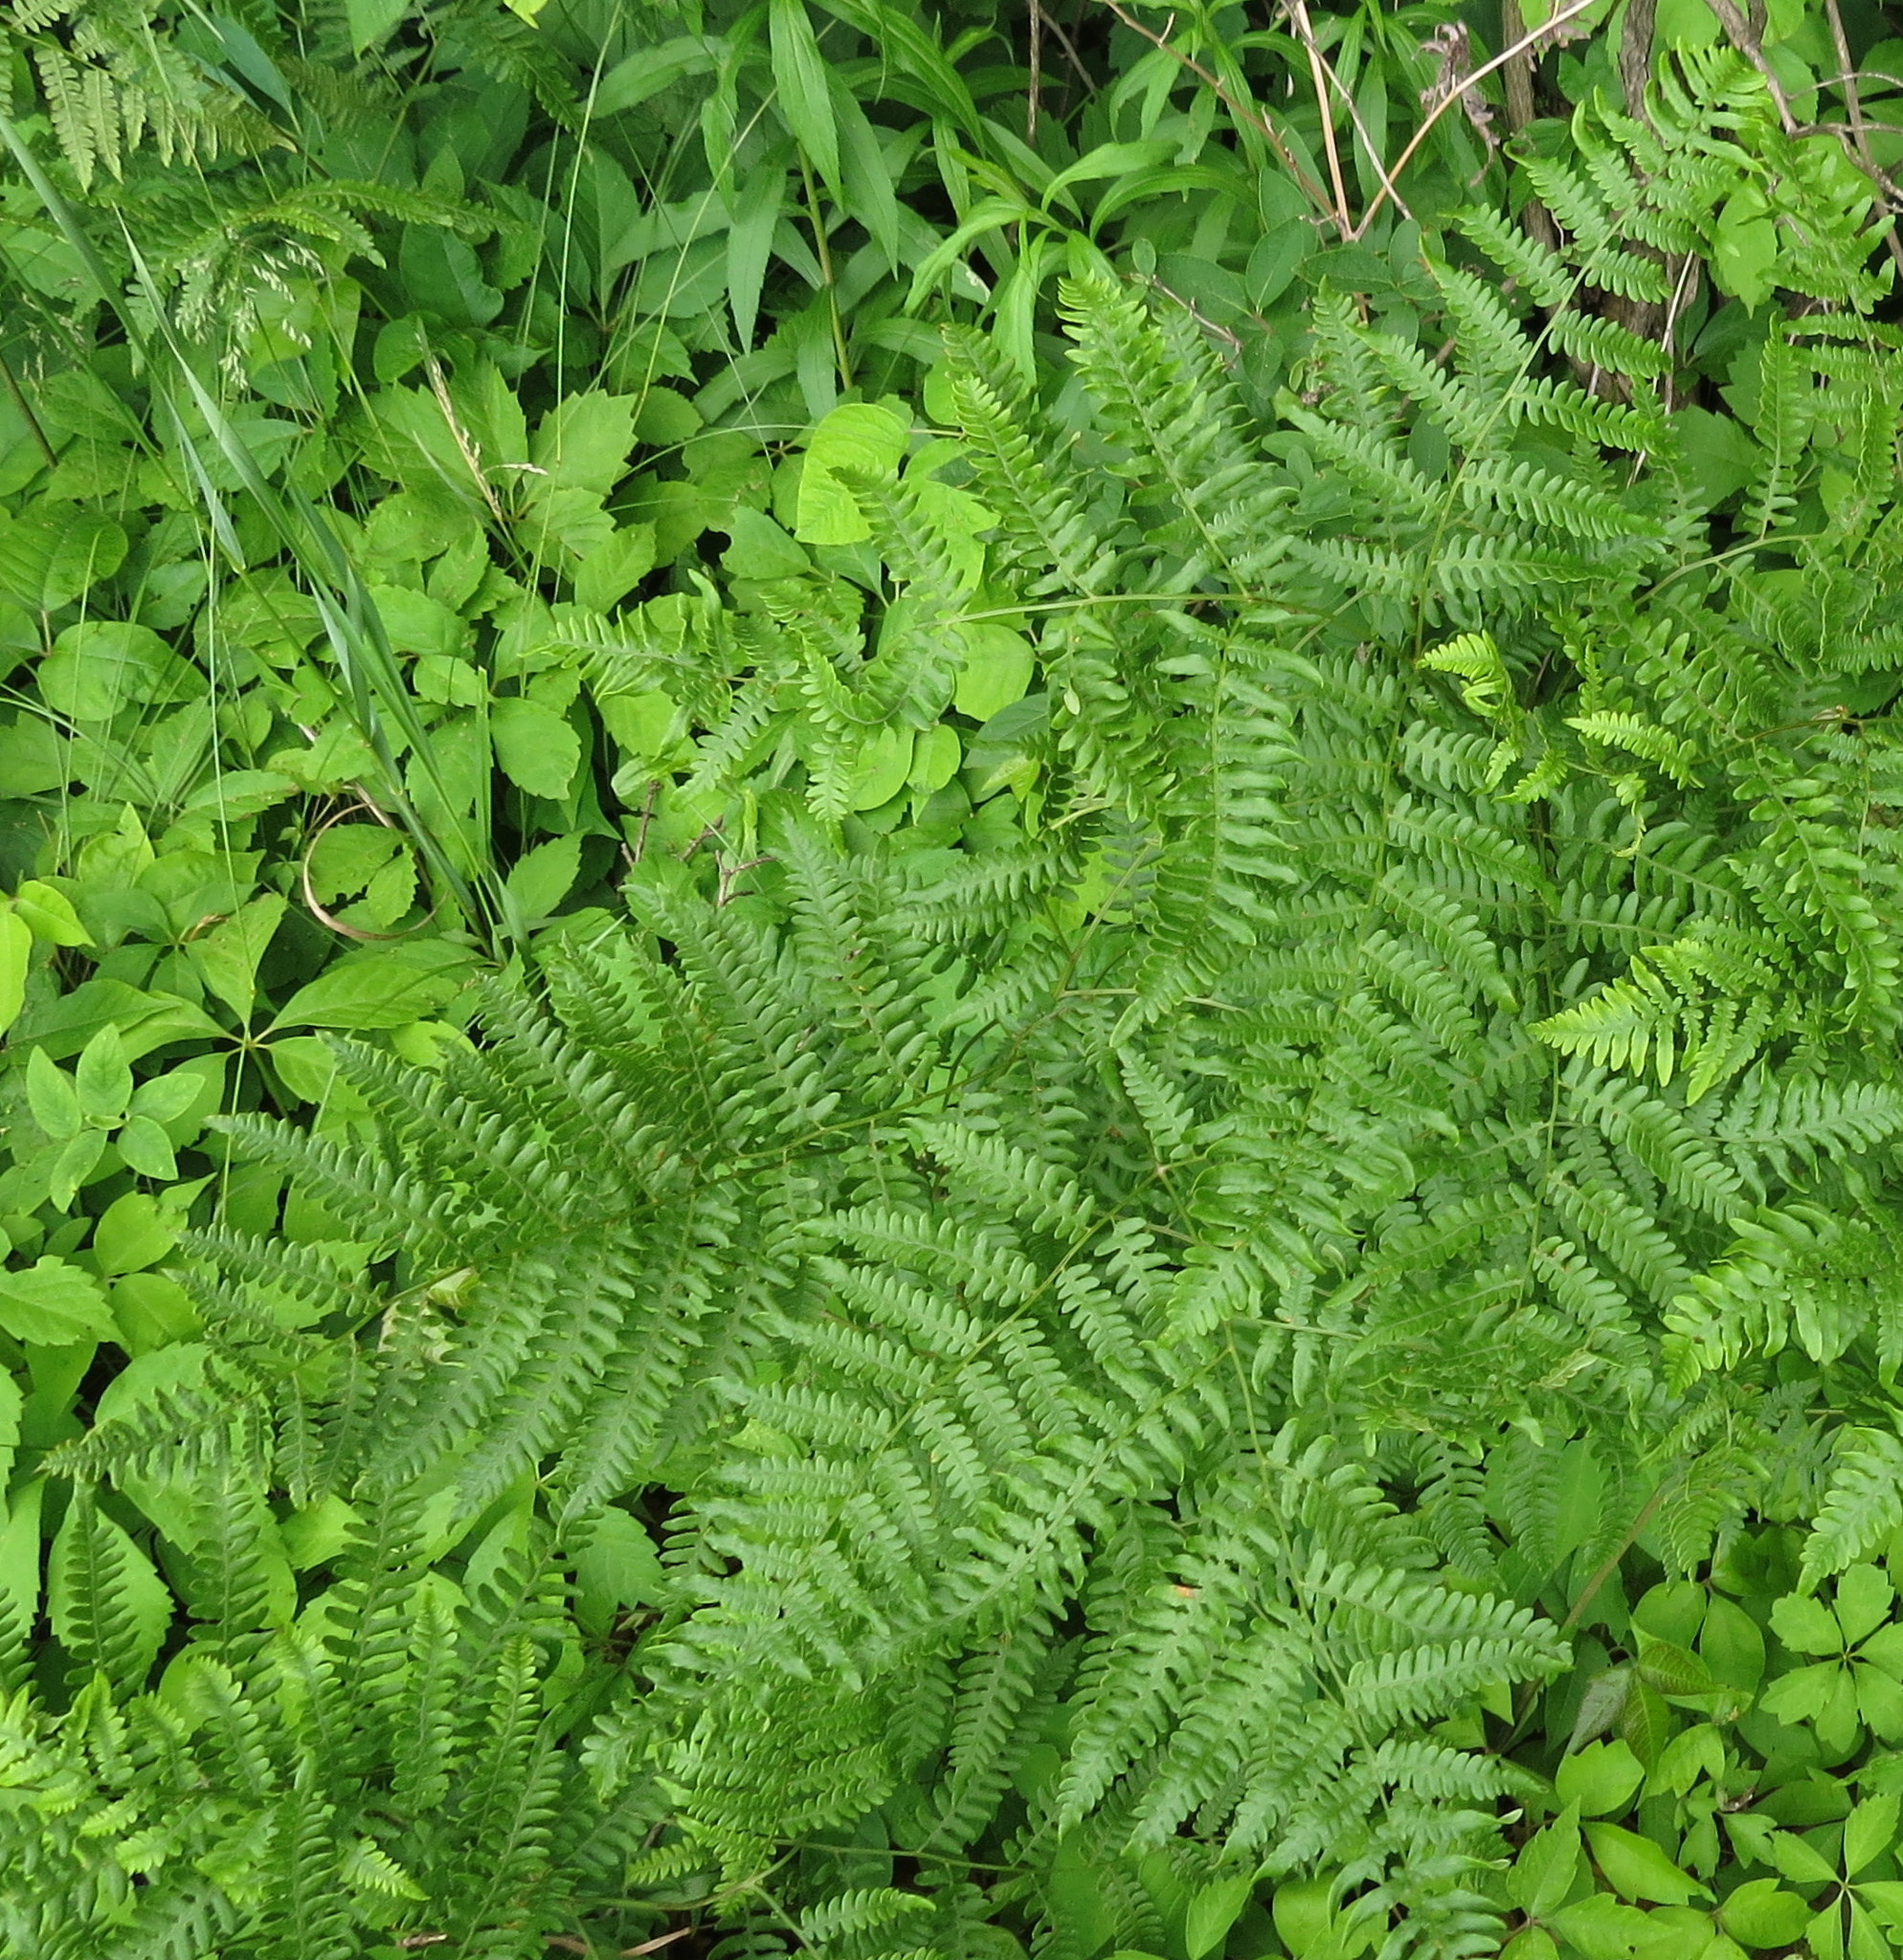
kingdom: Plantae
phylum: Tracheophyta
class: Polypodiopsida
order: Polypodiales
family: Dennstaedtiaceae
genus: Pteridium
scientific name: Pteridium aquilinum
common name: Bracken
